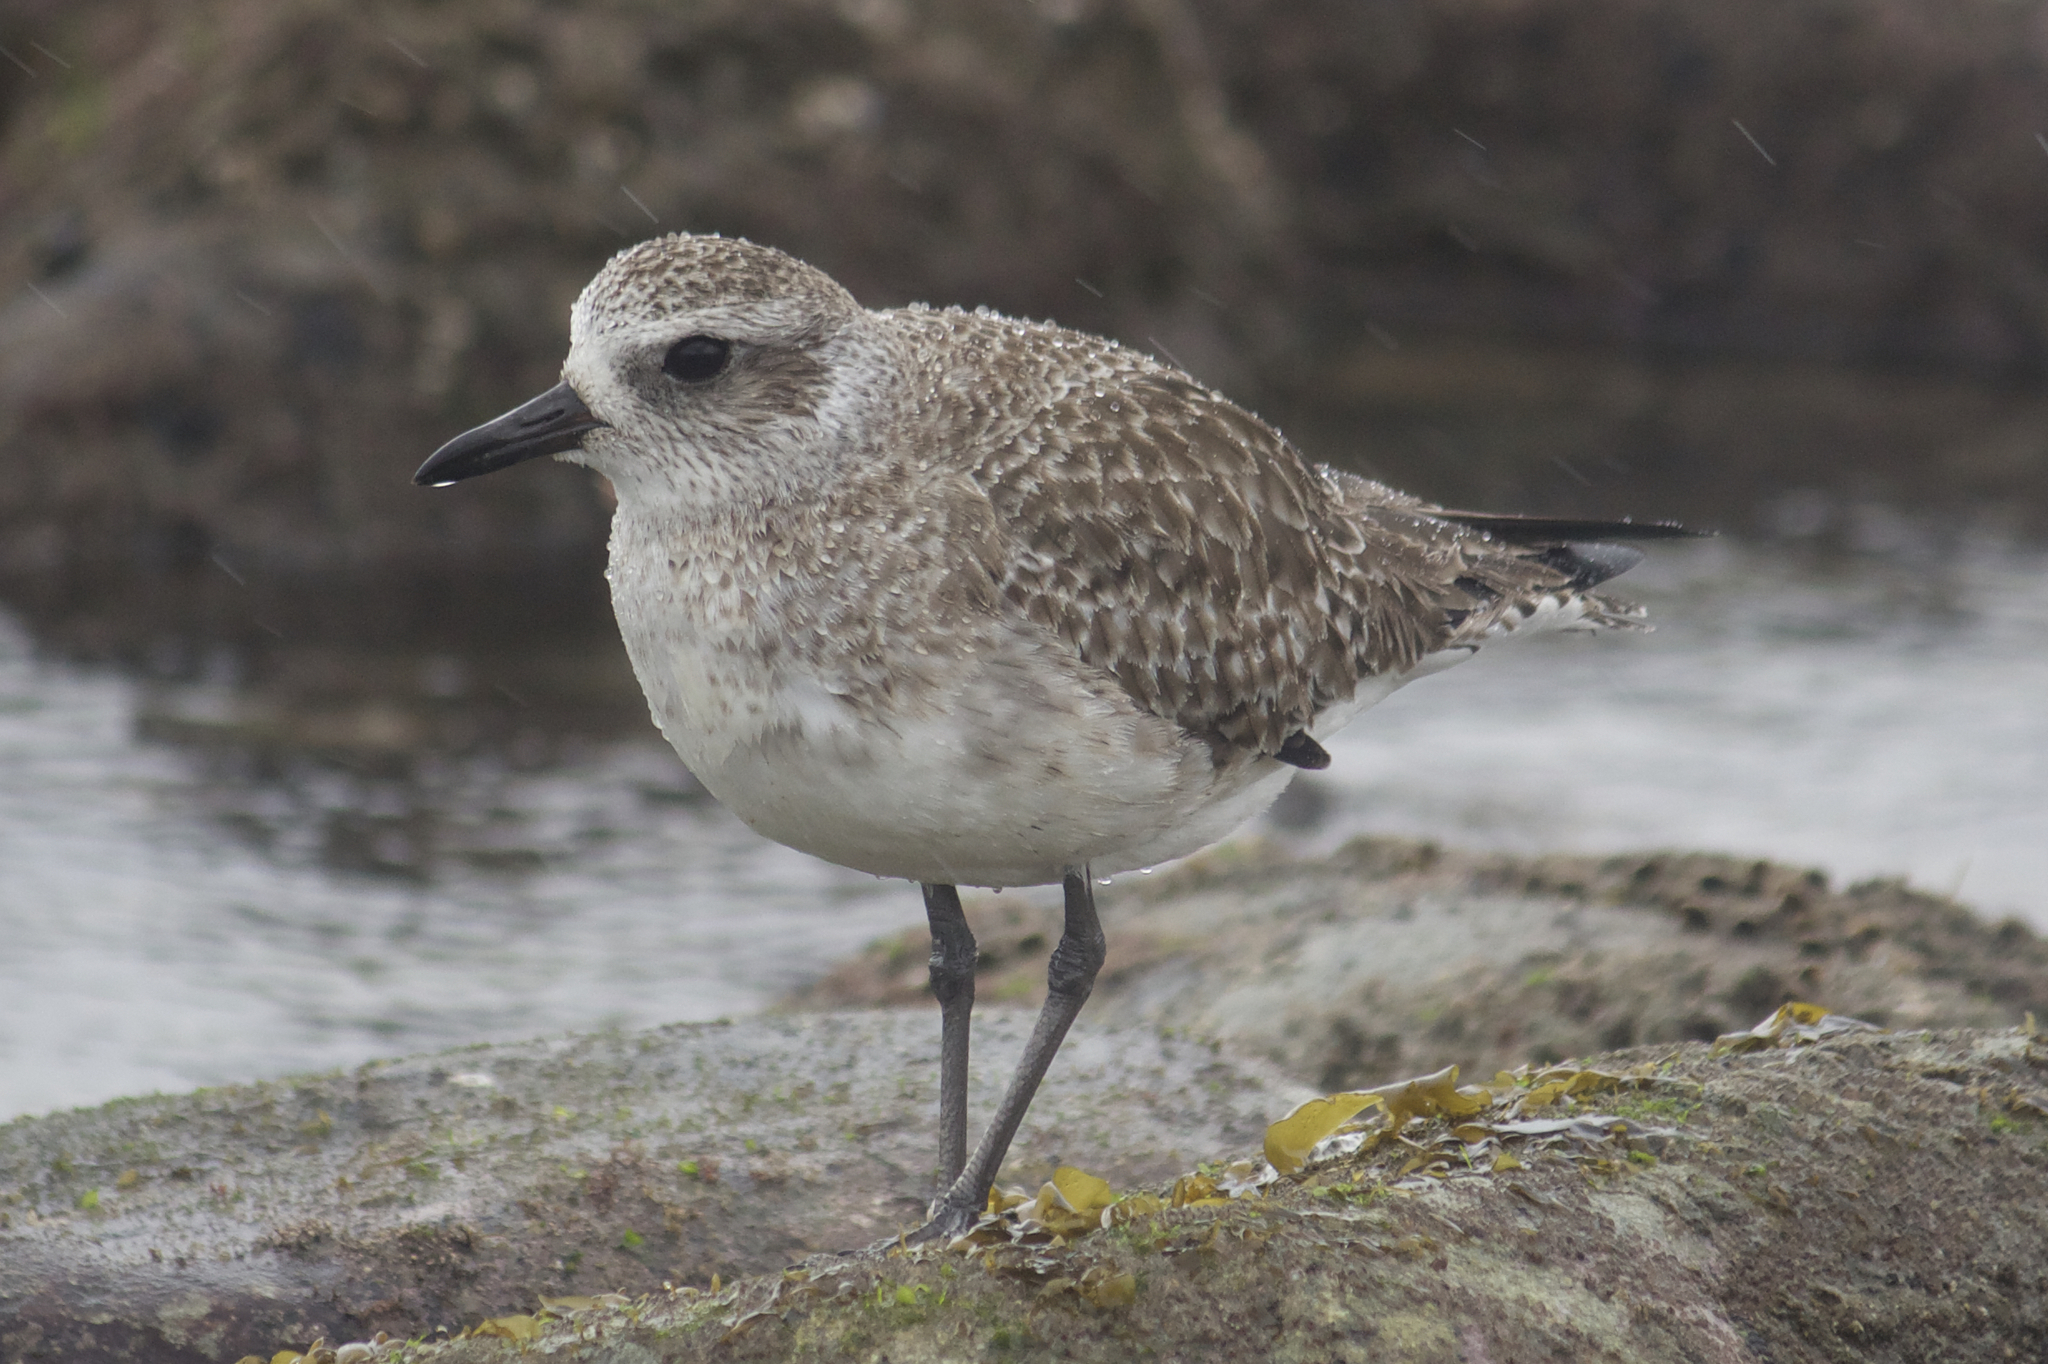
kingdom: Animalia
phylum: Chordata
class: Aves
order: Charadriiformes
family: Charadriidae
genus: Pluvialis
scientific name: Pluvialis squatarola
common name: Grey plover
